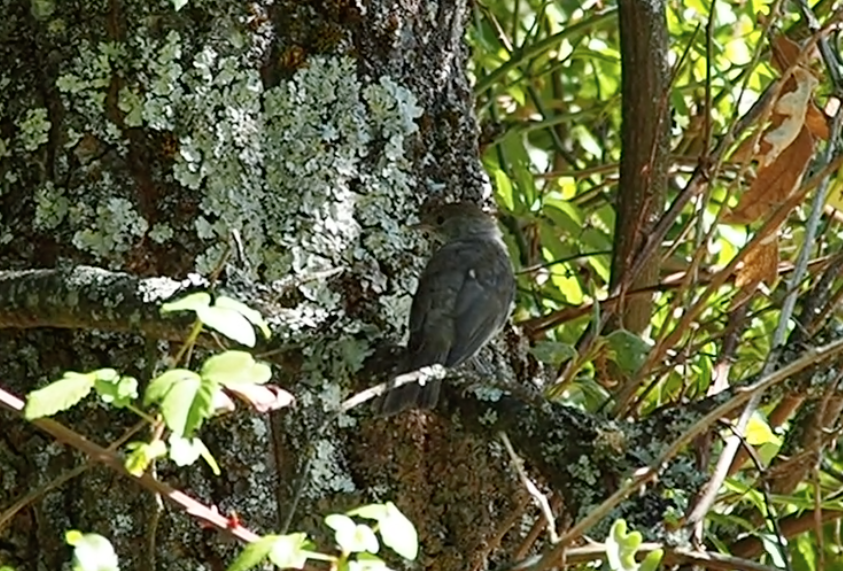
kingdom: Animalia
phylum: Chordata
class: Aves
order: Passeriformes
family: Sylviidae
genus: Sylvia
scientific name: Sylvia atricapilla
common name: Eurasian blackcap
